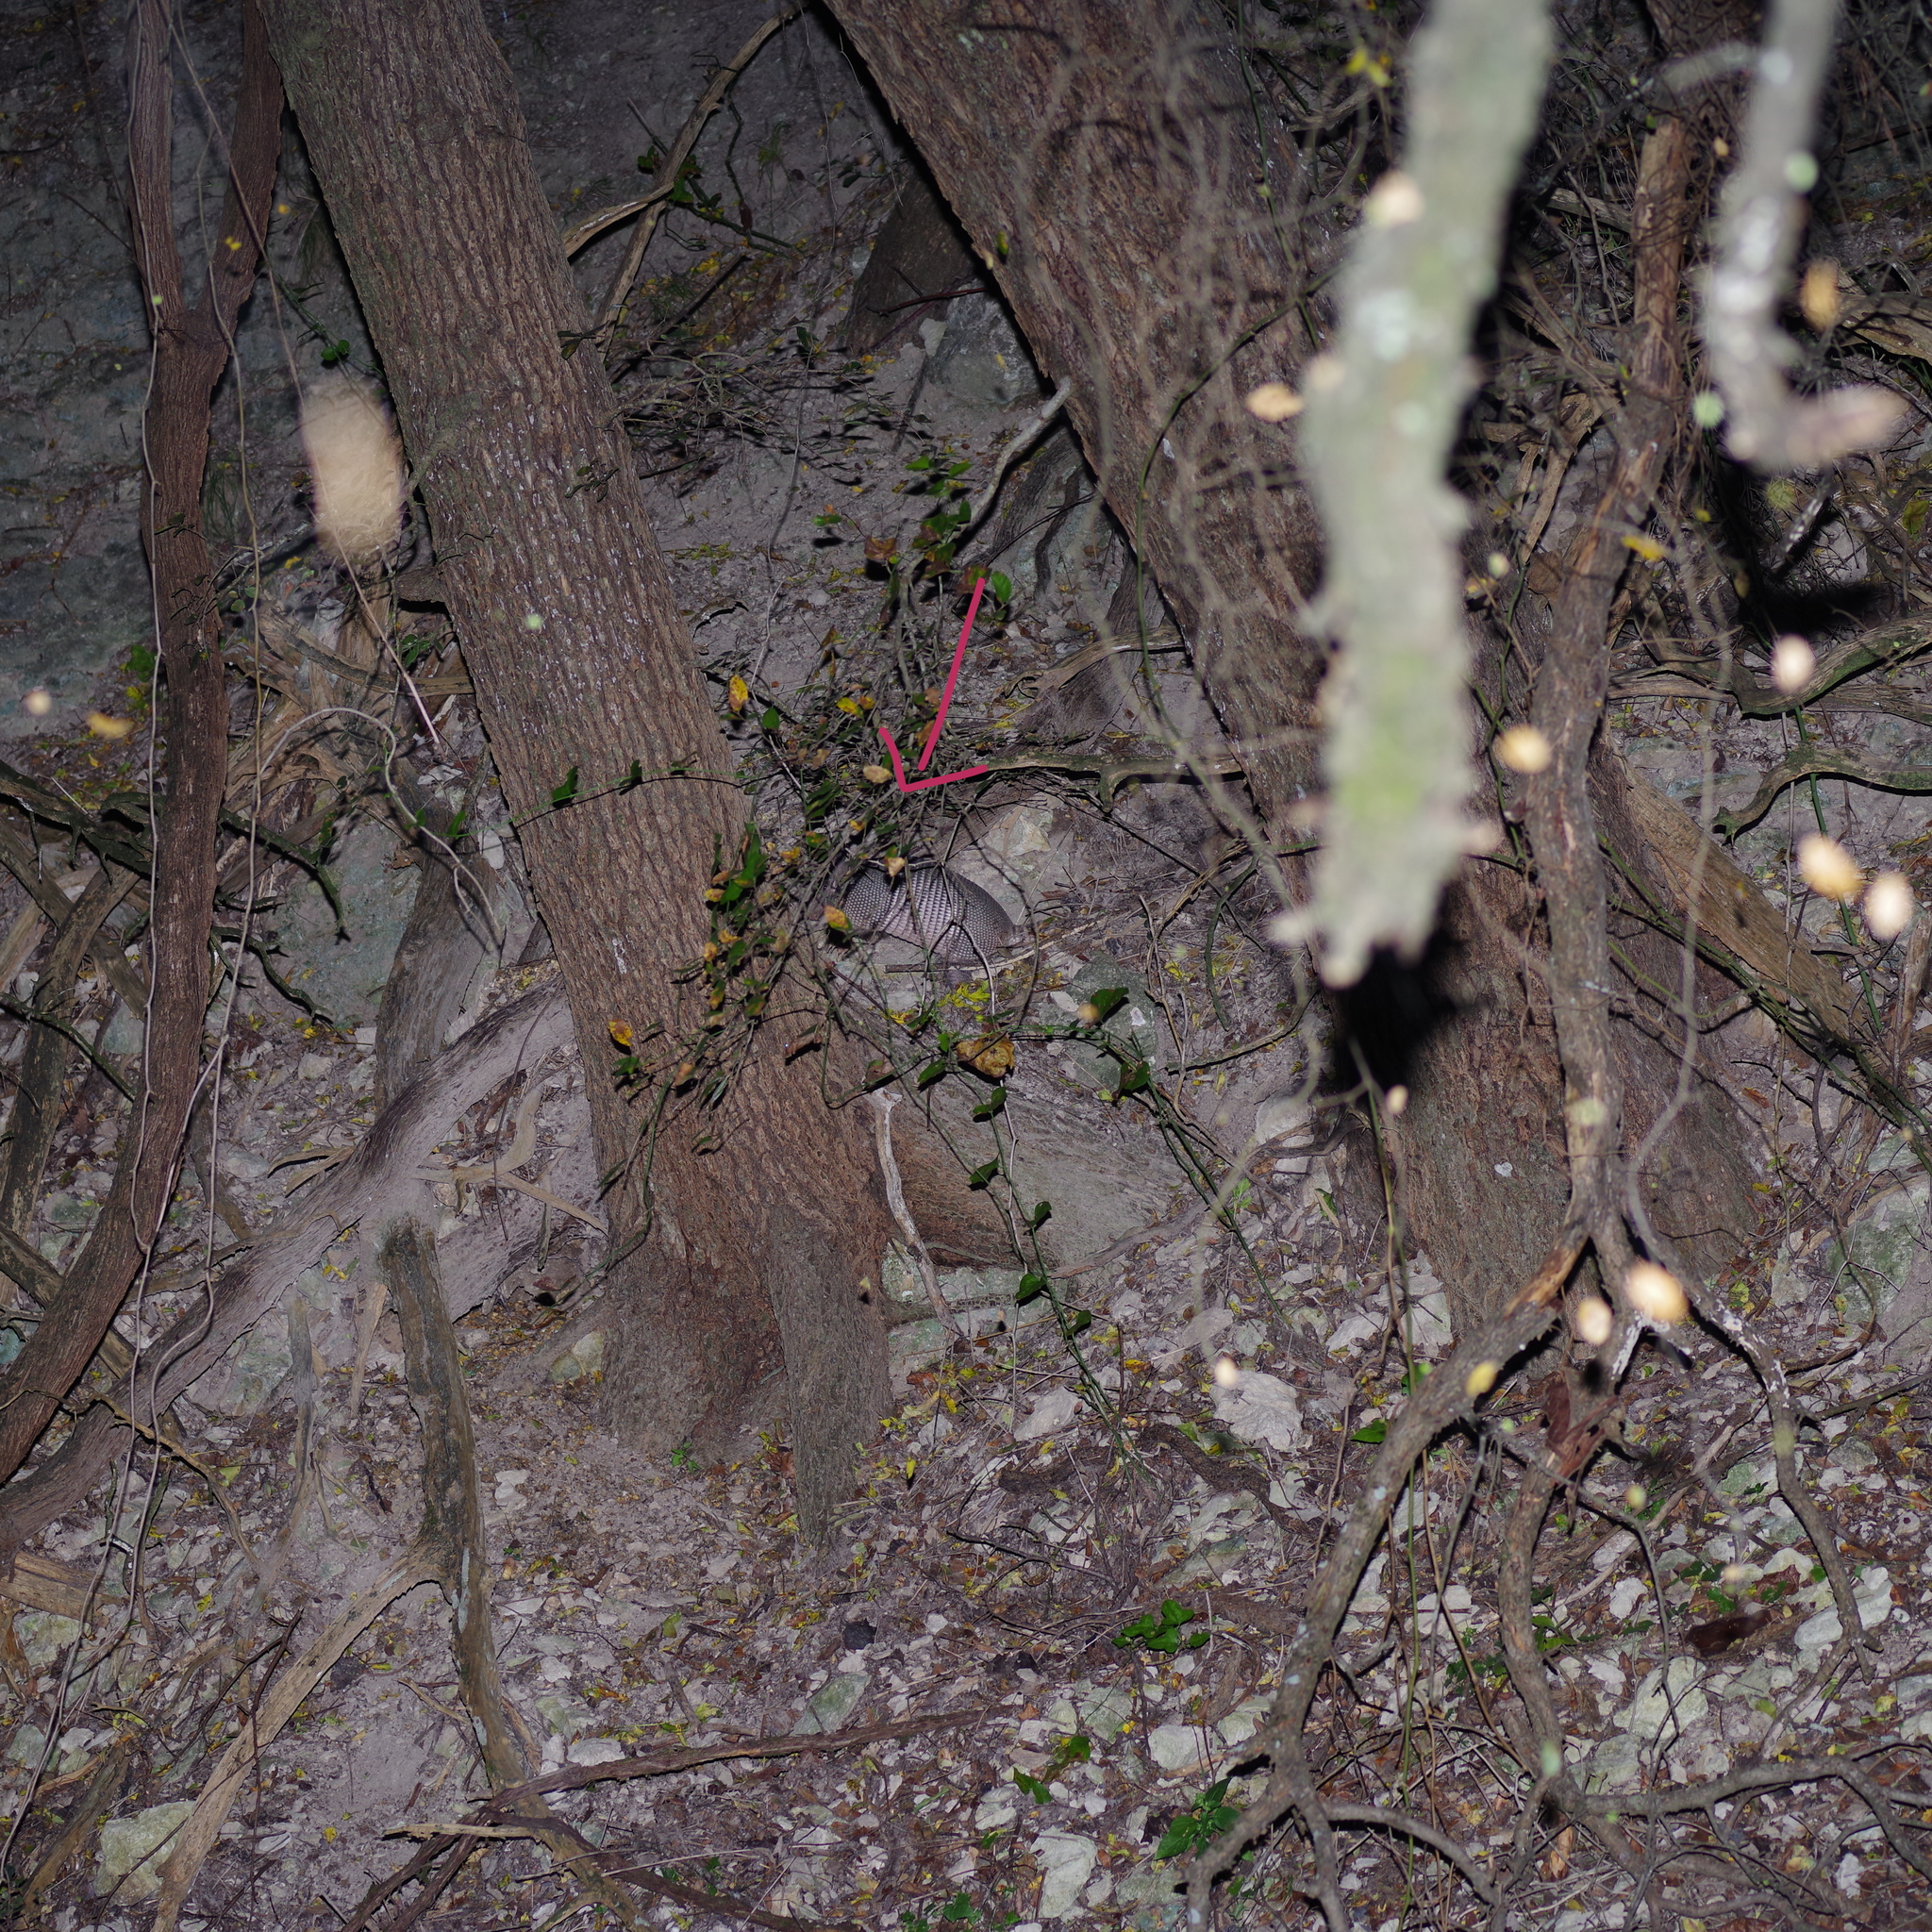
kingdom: Animalia
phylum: Chordata
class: Mammalia
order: Cingulata
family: Dasypodidae
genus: Dasypus
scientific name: Dasypus novemcinctus
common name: Nine-banded armadillo
